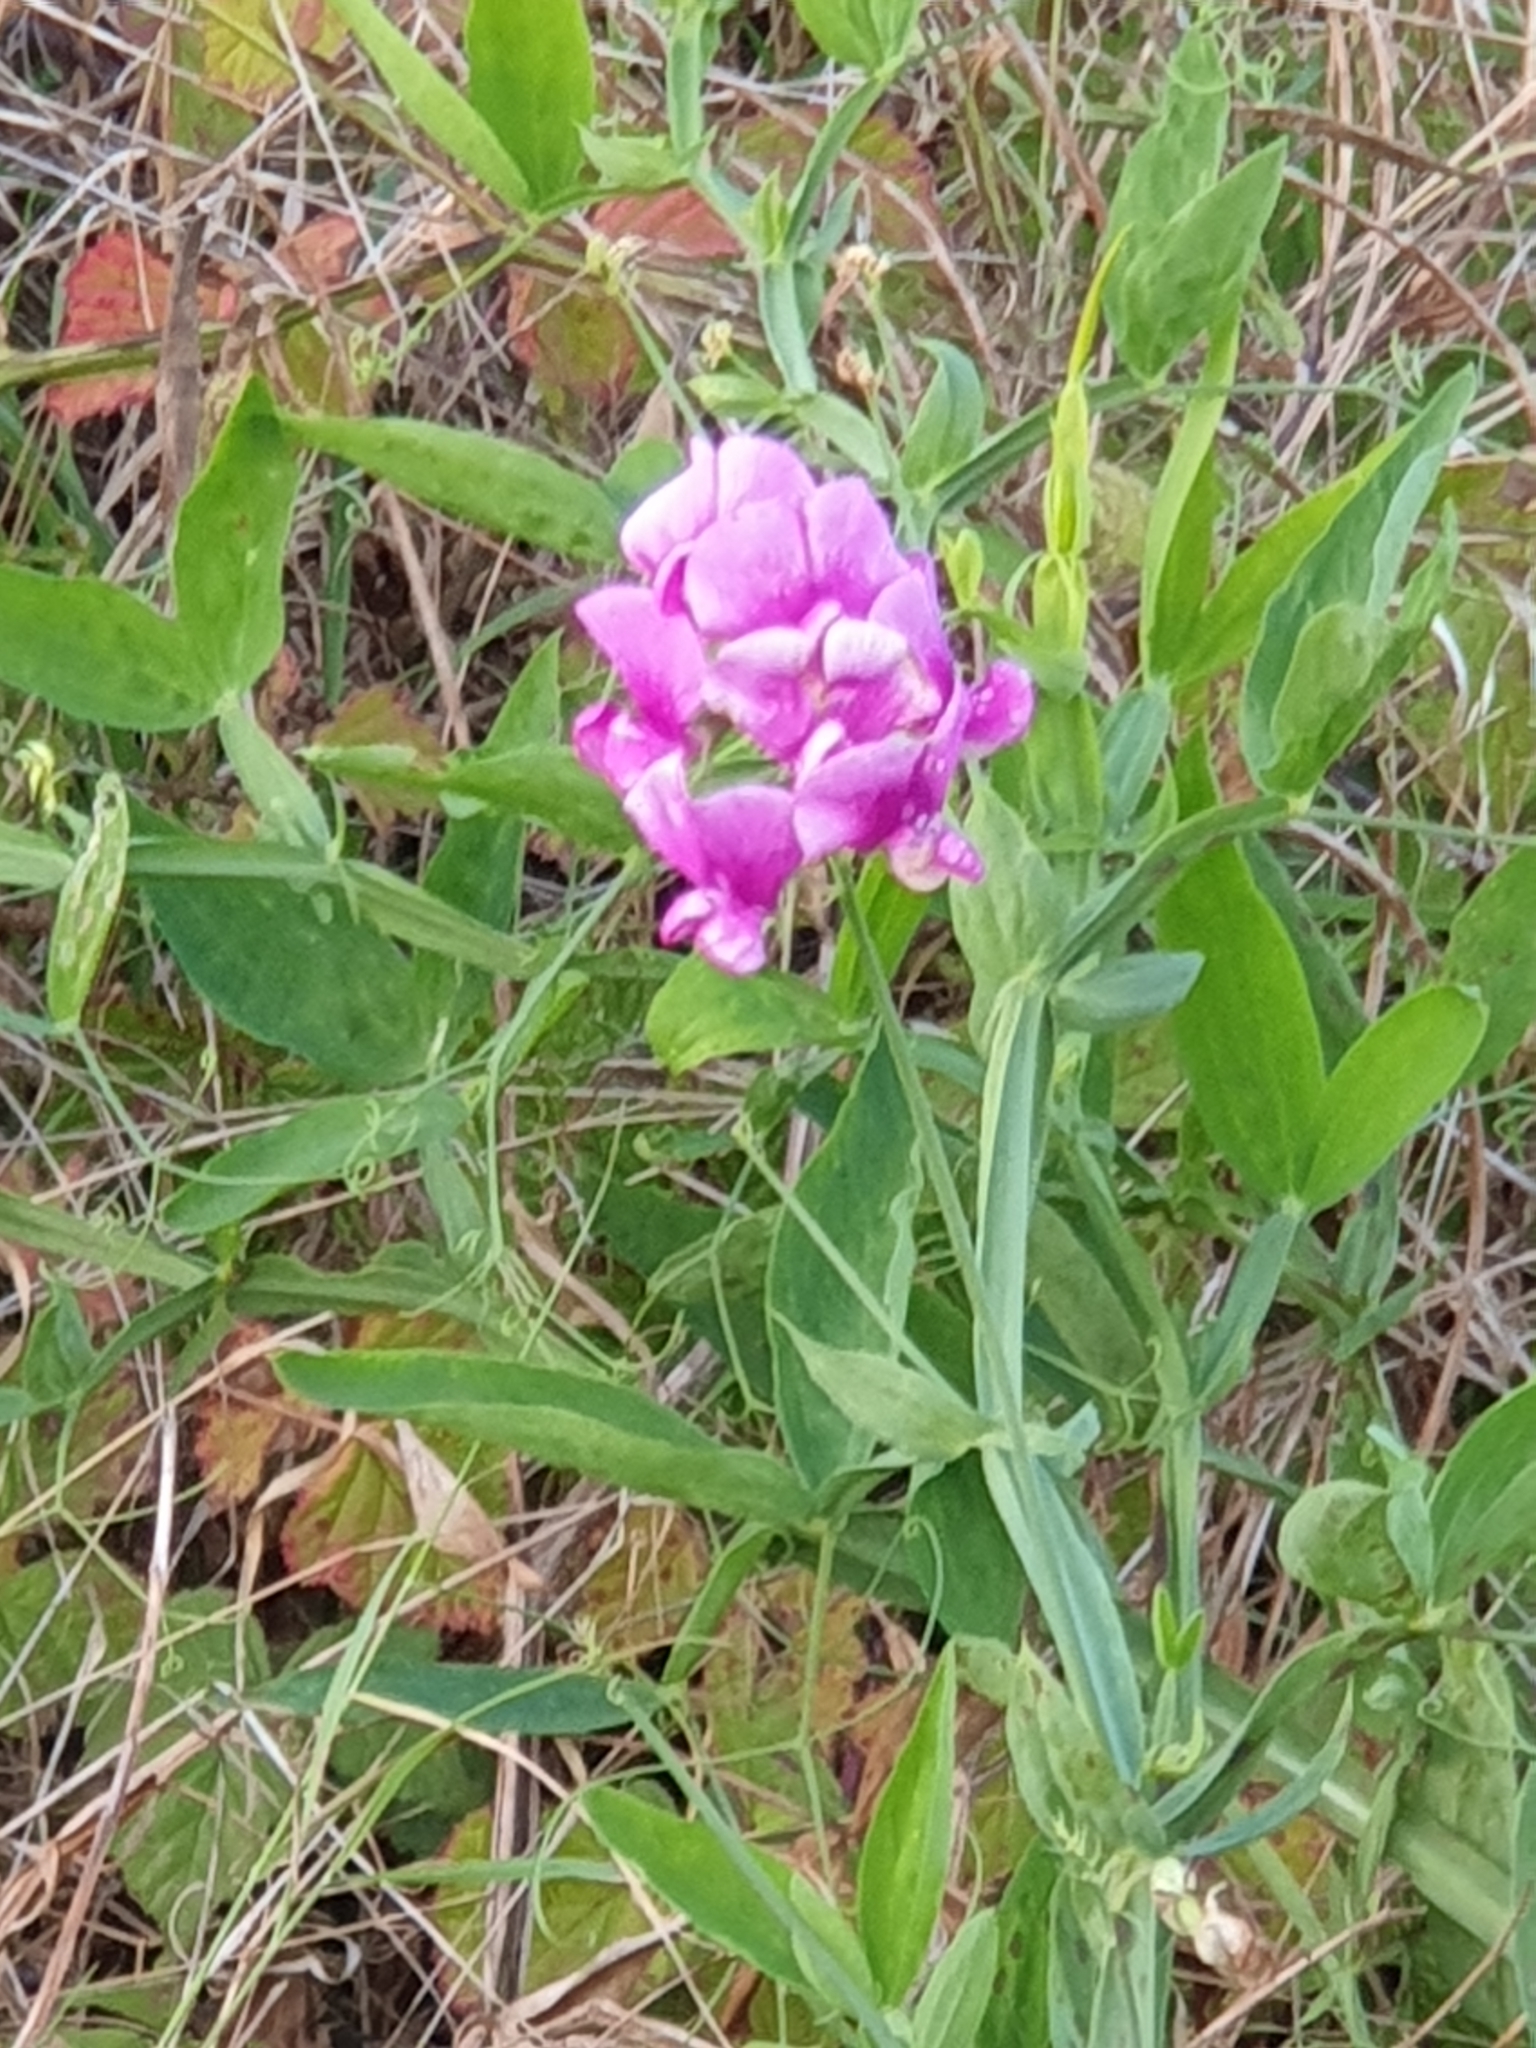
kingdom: Plantae
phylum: Tracheophyta
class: Magnoliopsida
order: Fabales
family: Fabaceae
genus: Lathyrus
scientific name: Lathyrus latifolius
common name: Perennial pea
